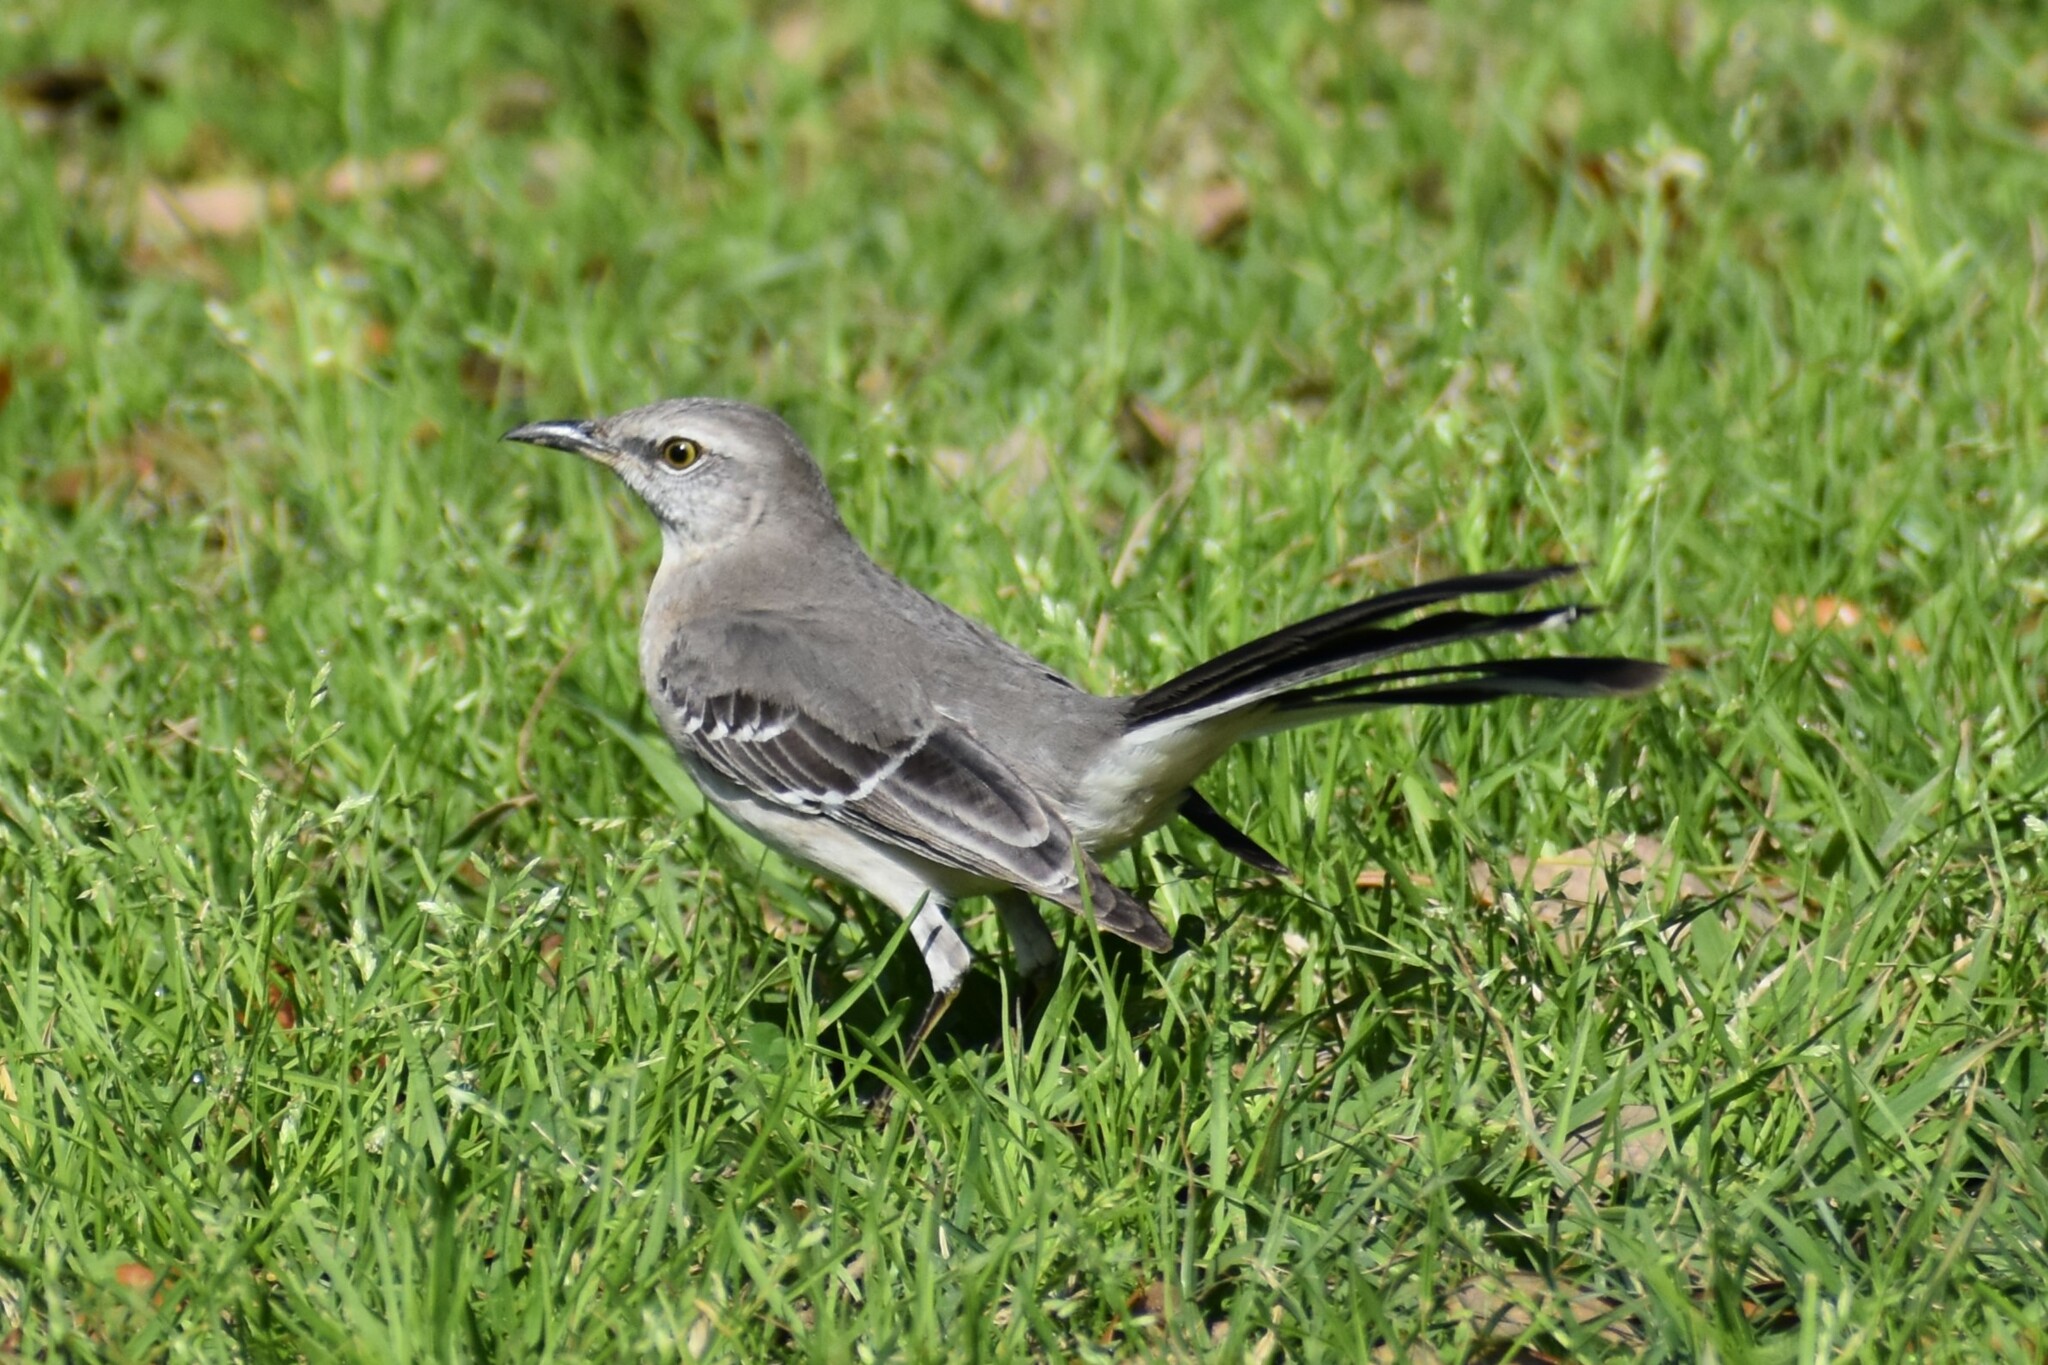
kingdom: Animalia
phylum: Chordata
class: Aves
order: Passeriformes
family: Mimidae
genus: Mimus
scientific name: Mimus polyglottos
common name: Northern mockingbird
